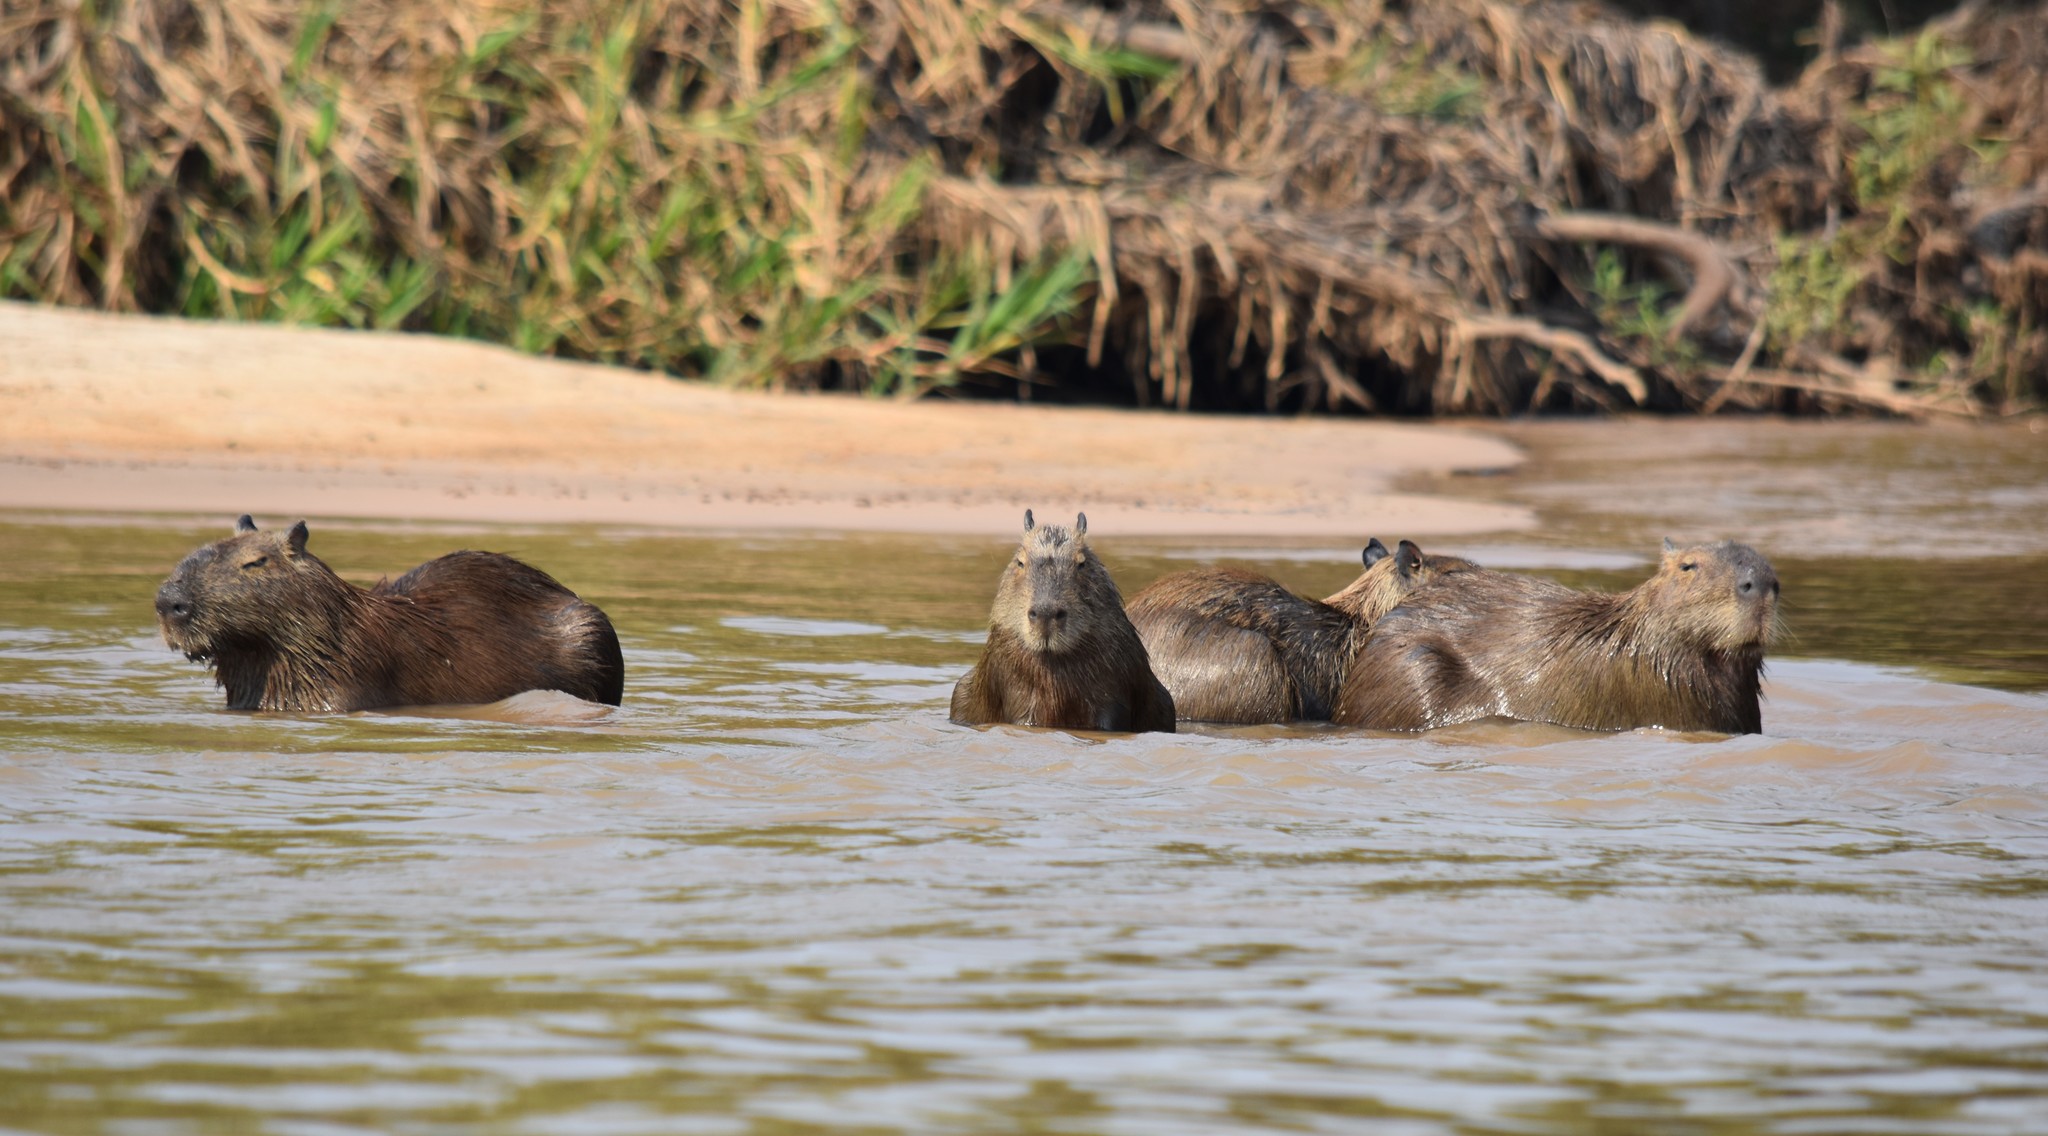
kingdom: Animalia
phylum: Chordata
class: Mammalia
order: Rodentia
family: Caviidae
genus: Hydrochoerus
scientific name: Hydrochoerus hydrochaeris
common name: Capybara
